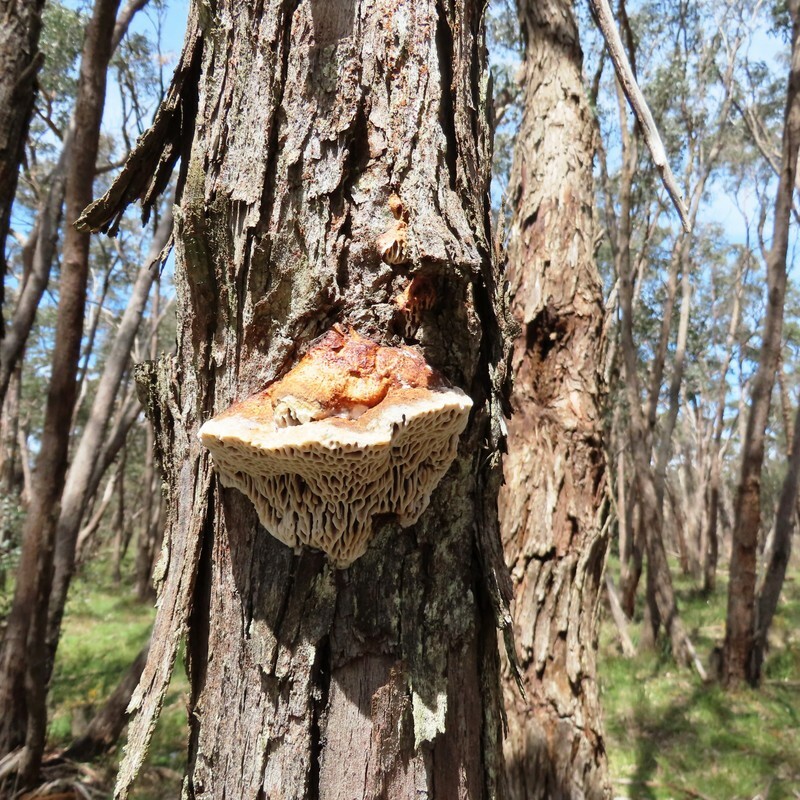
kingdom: Fungi
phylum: Basidiomycota
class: Agaricomycetes
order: Polyporales
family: Polyporaceae
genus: Hexagonia
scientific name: Hexagonia vesparia
